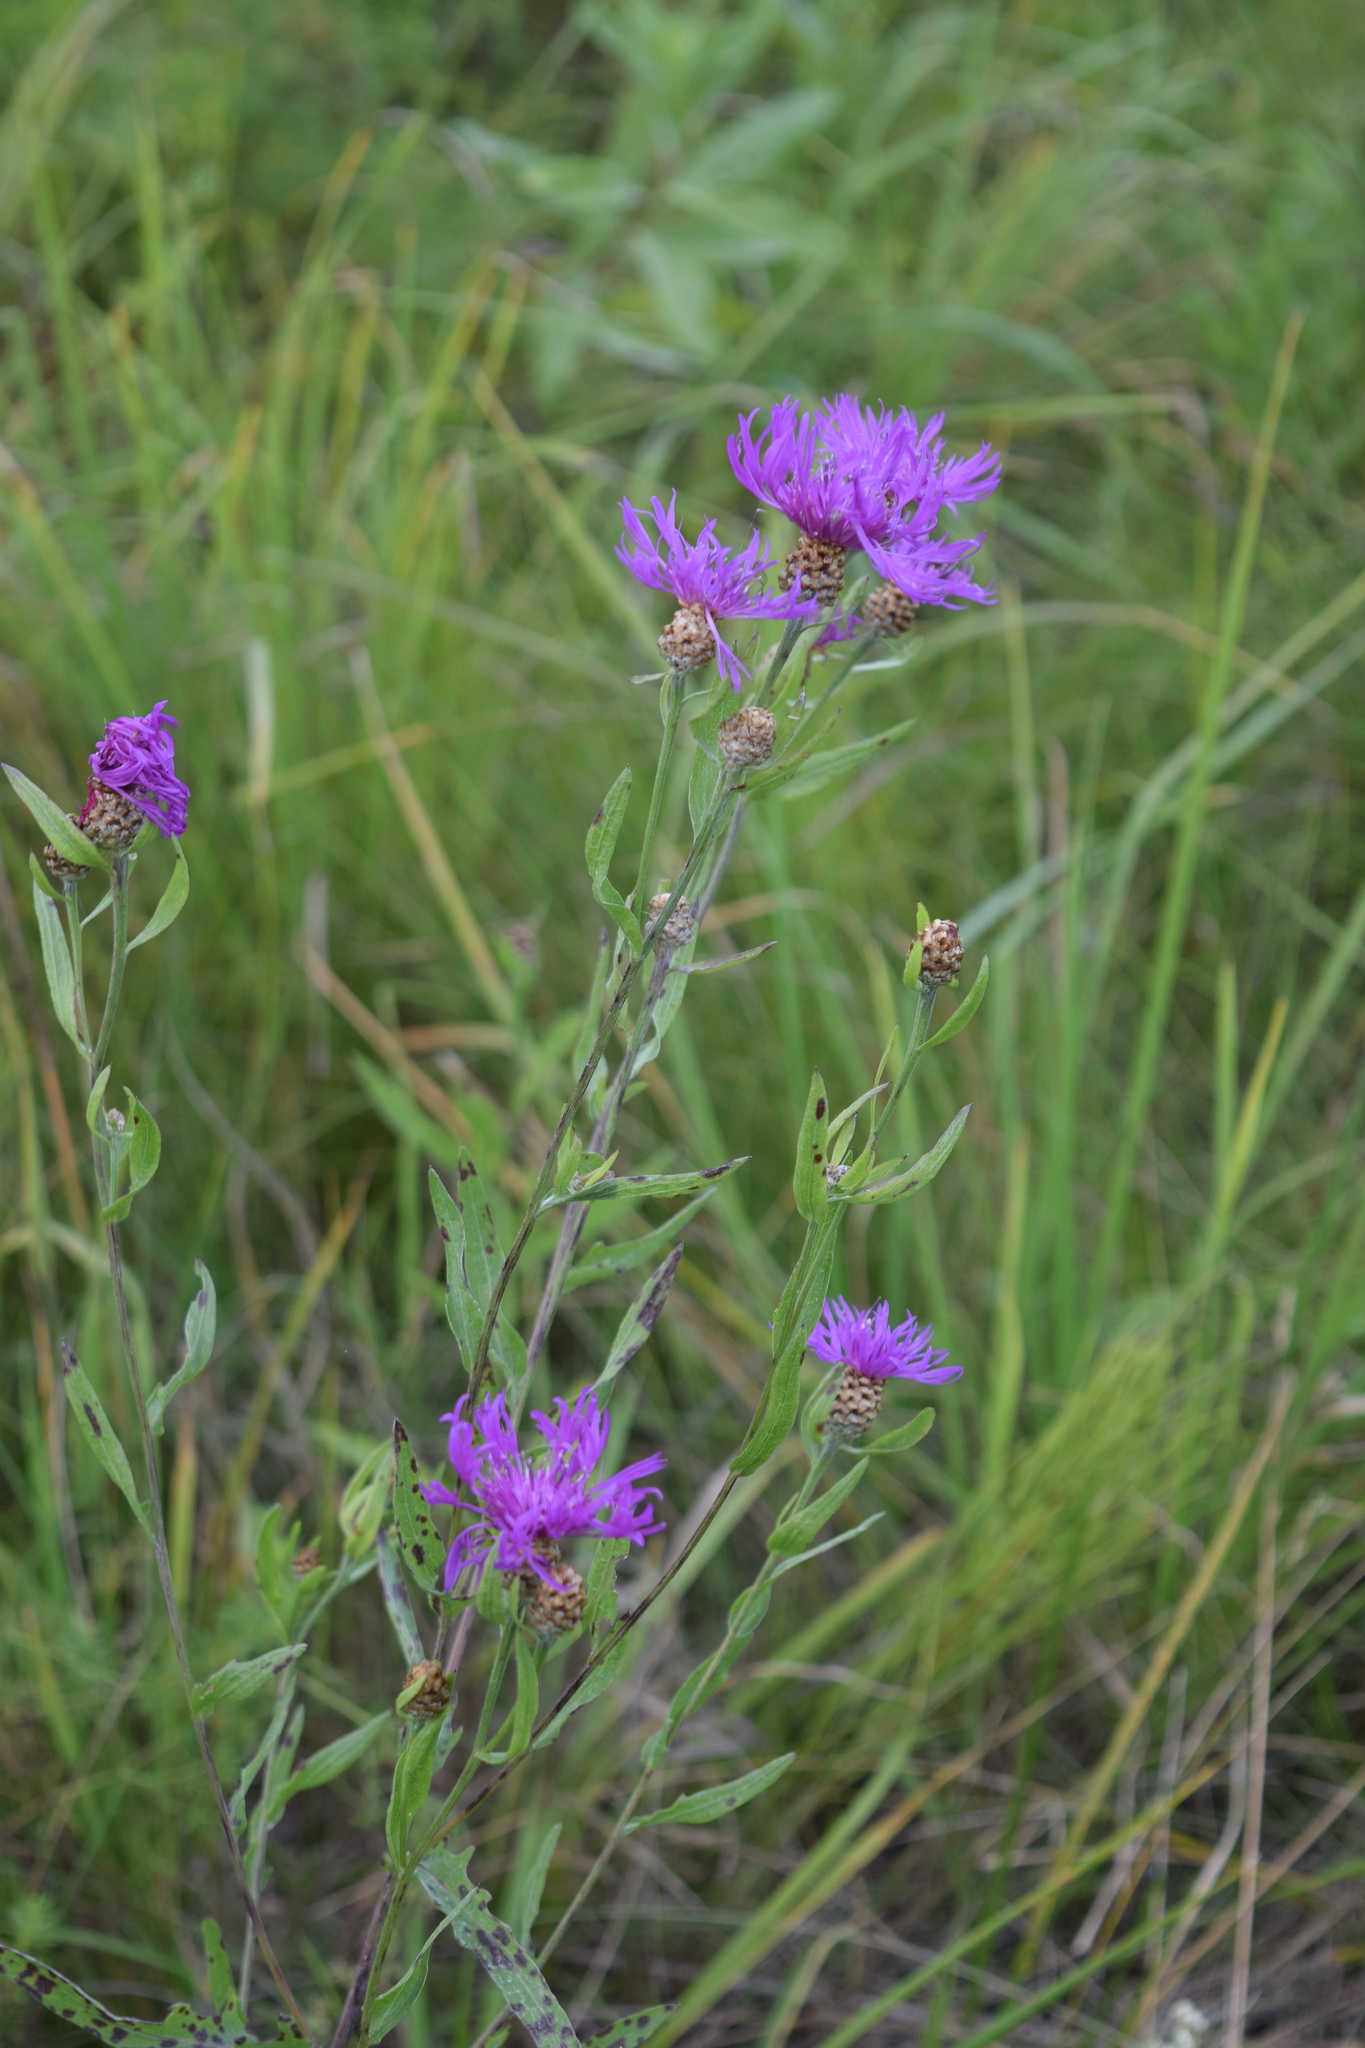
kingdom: Plantae
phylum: Tracheophyta
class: Magnoliopsida
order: Asterales
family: Asteraceae
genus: Centaurea
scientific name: Centaurea jacea
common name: Brown knapweed
